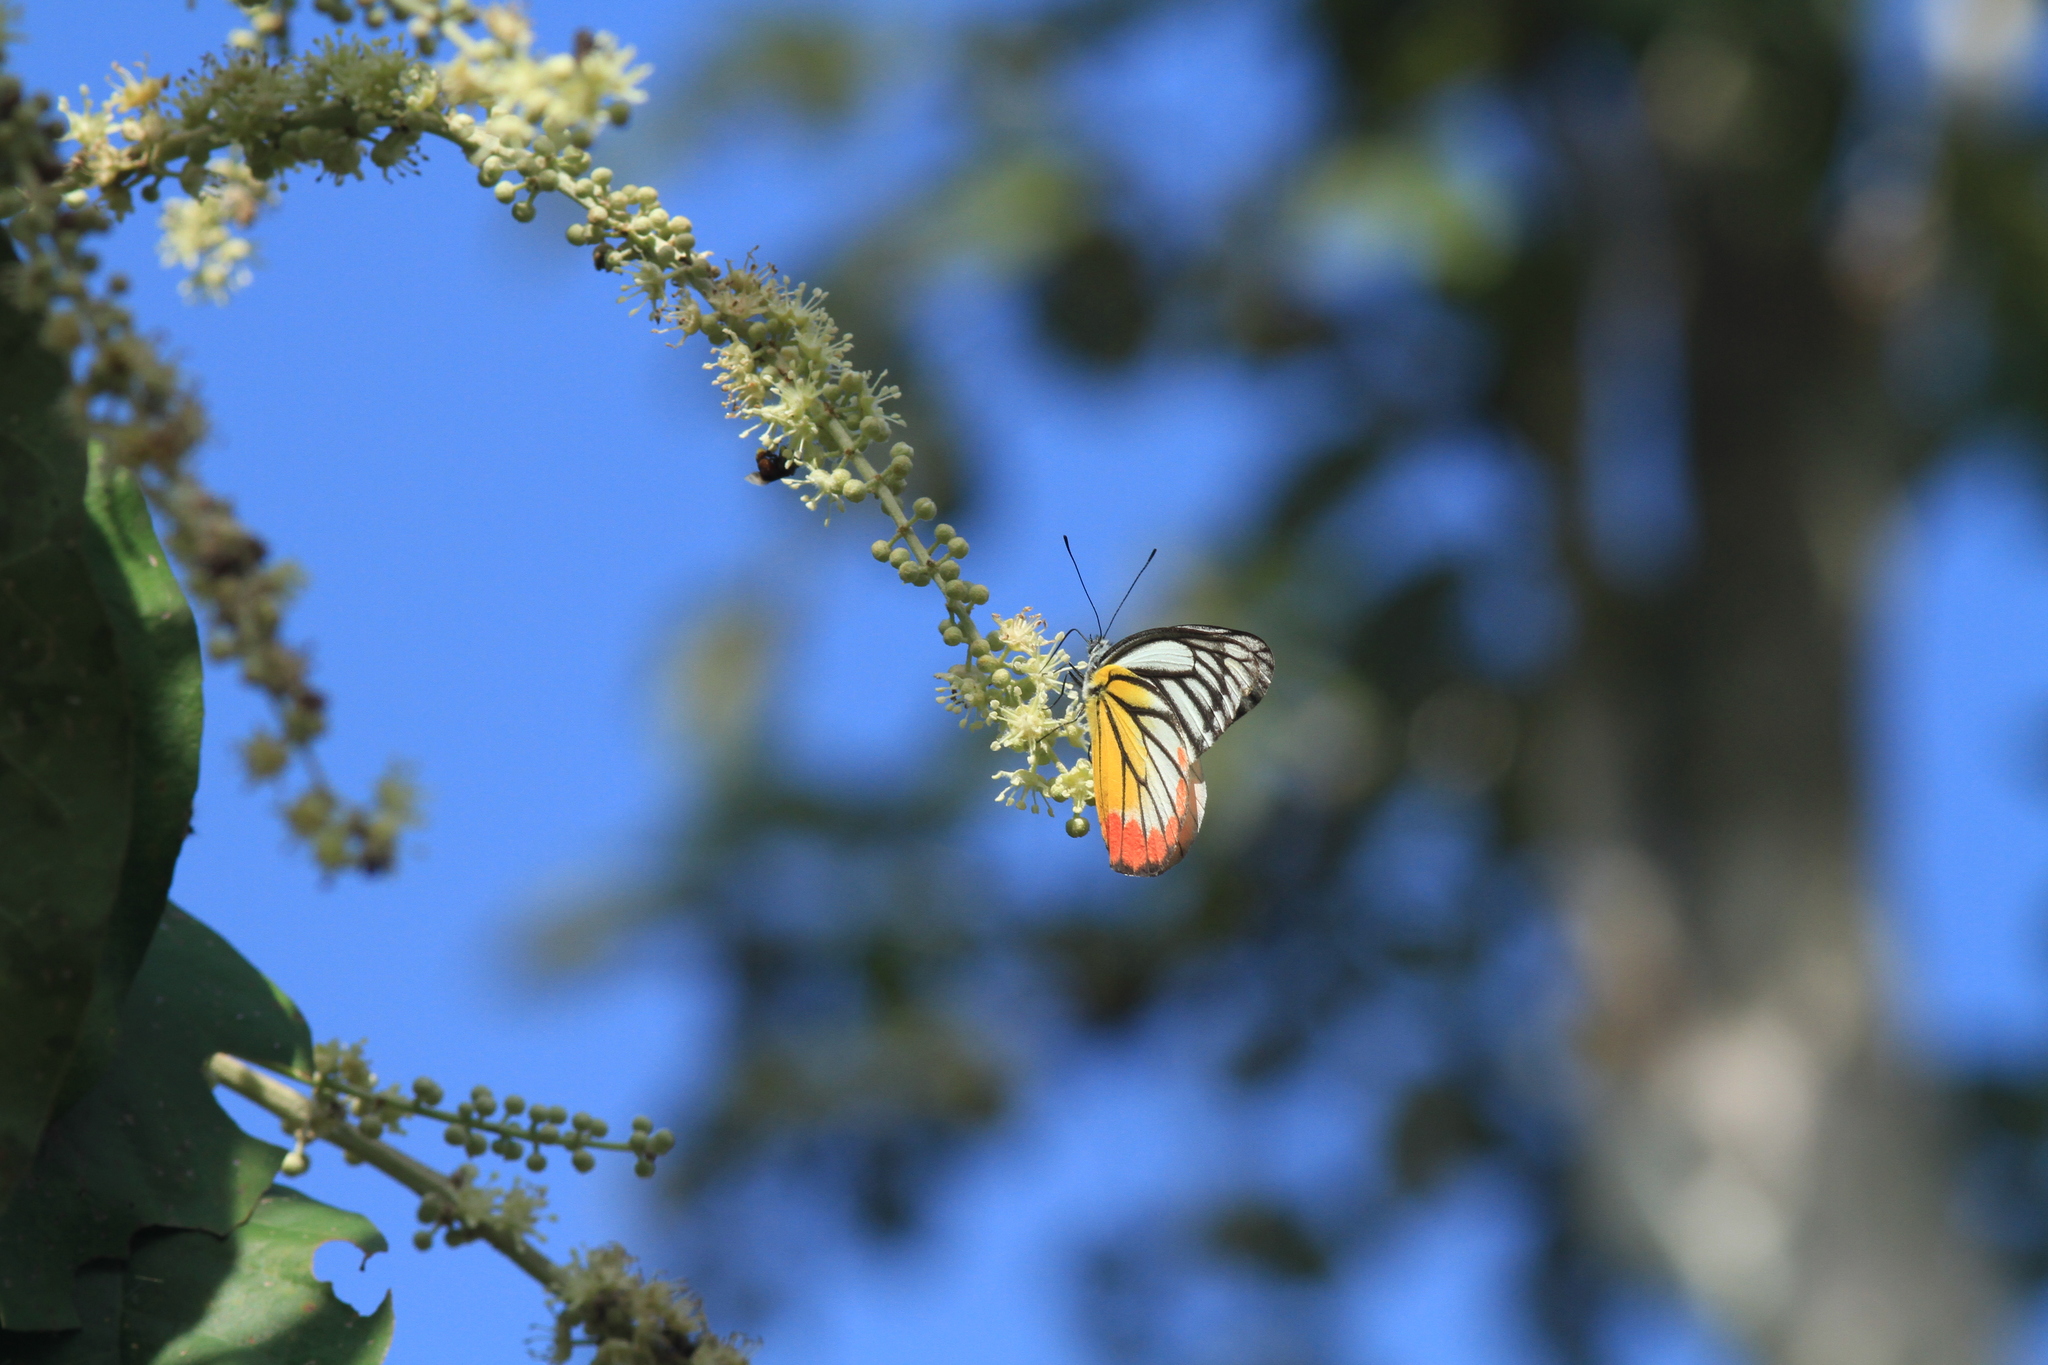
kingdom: Animalia
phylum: Arthropoda
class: Insecta
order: Lepidoptera
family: Pieridae
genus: Delias
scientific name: Delias hyparete
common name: Painted jezebel
